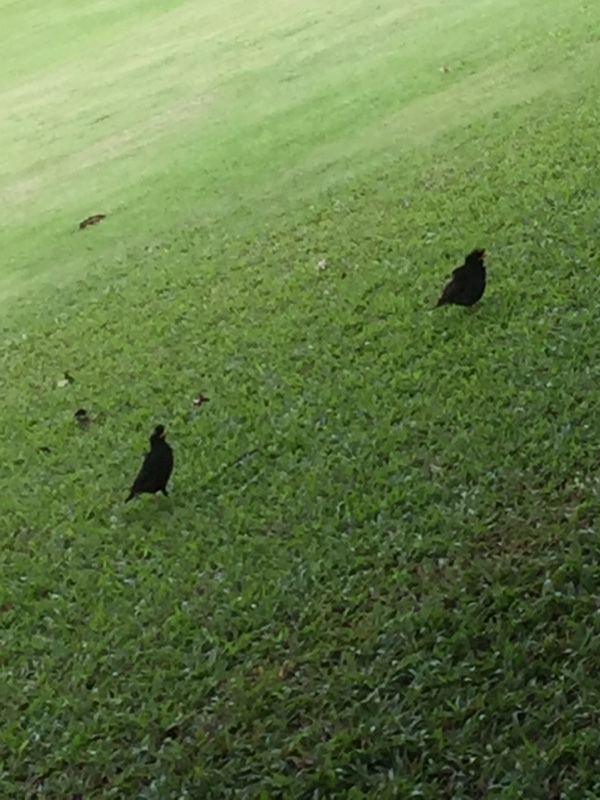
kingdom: Animalia
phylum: Chordata
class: Aves
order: Passeriformes
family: Sturnidae
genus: Acridotheres
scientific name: Acridotheres grandis
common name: Great myna
